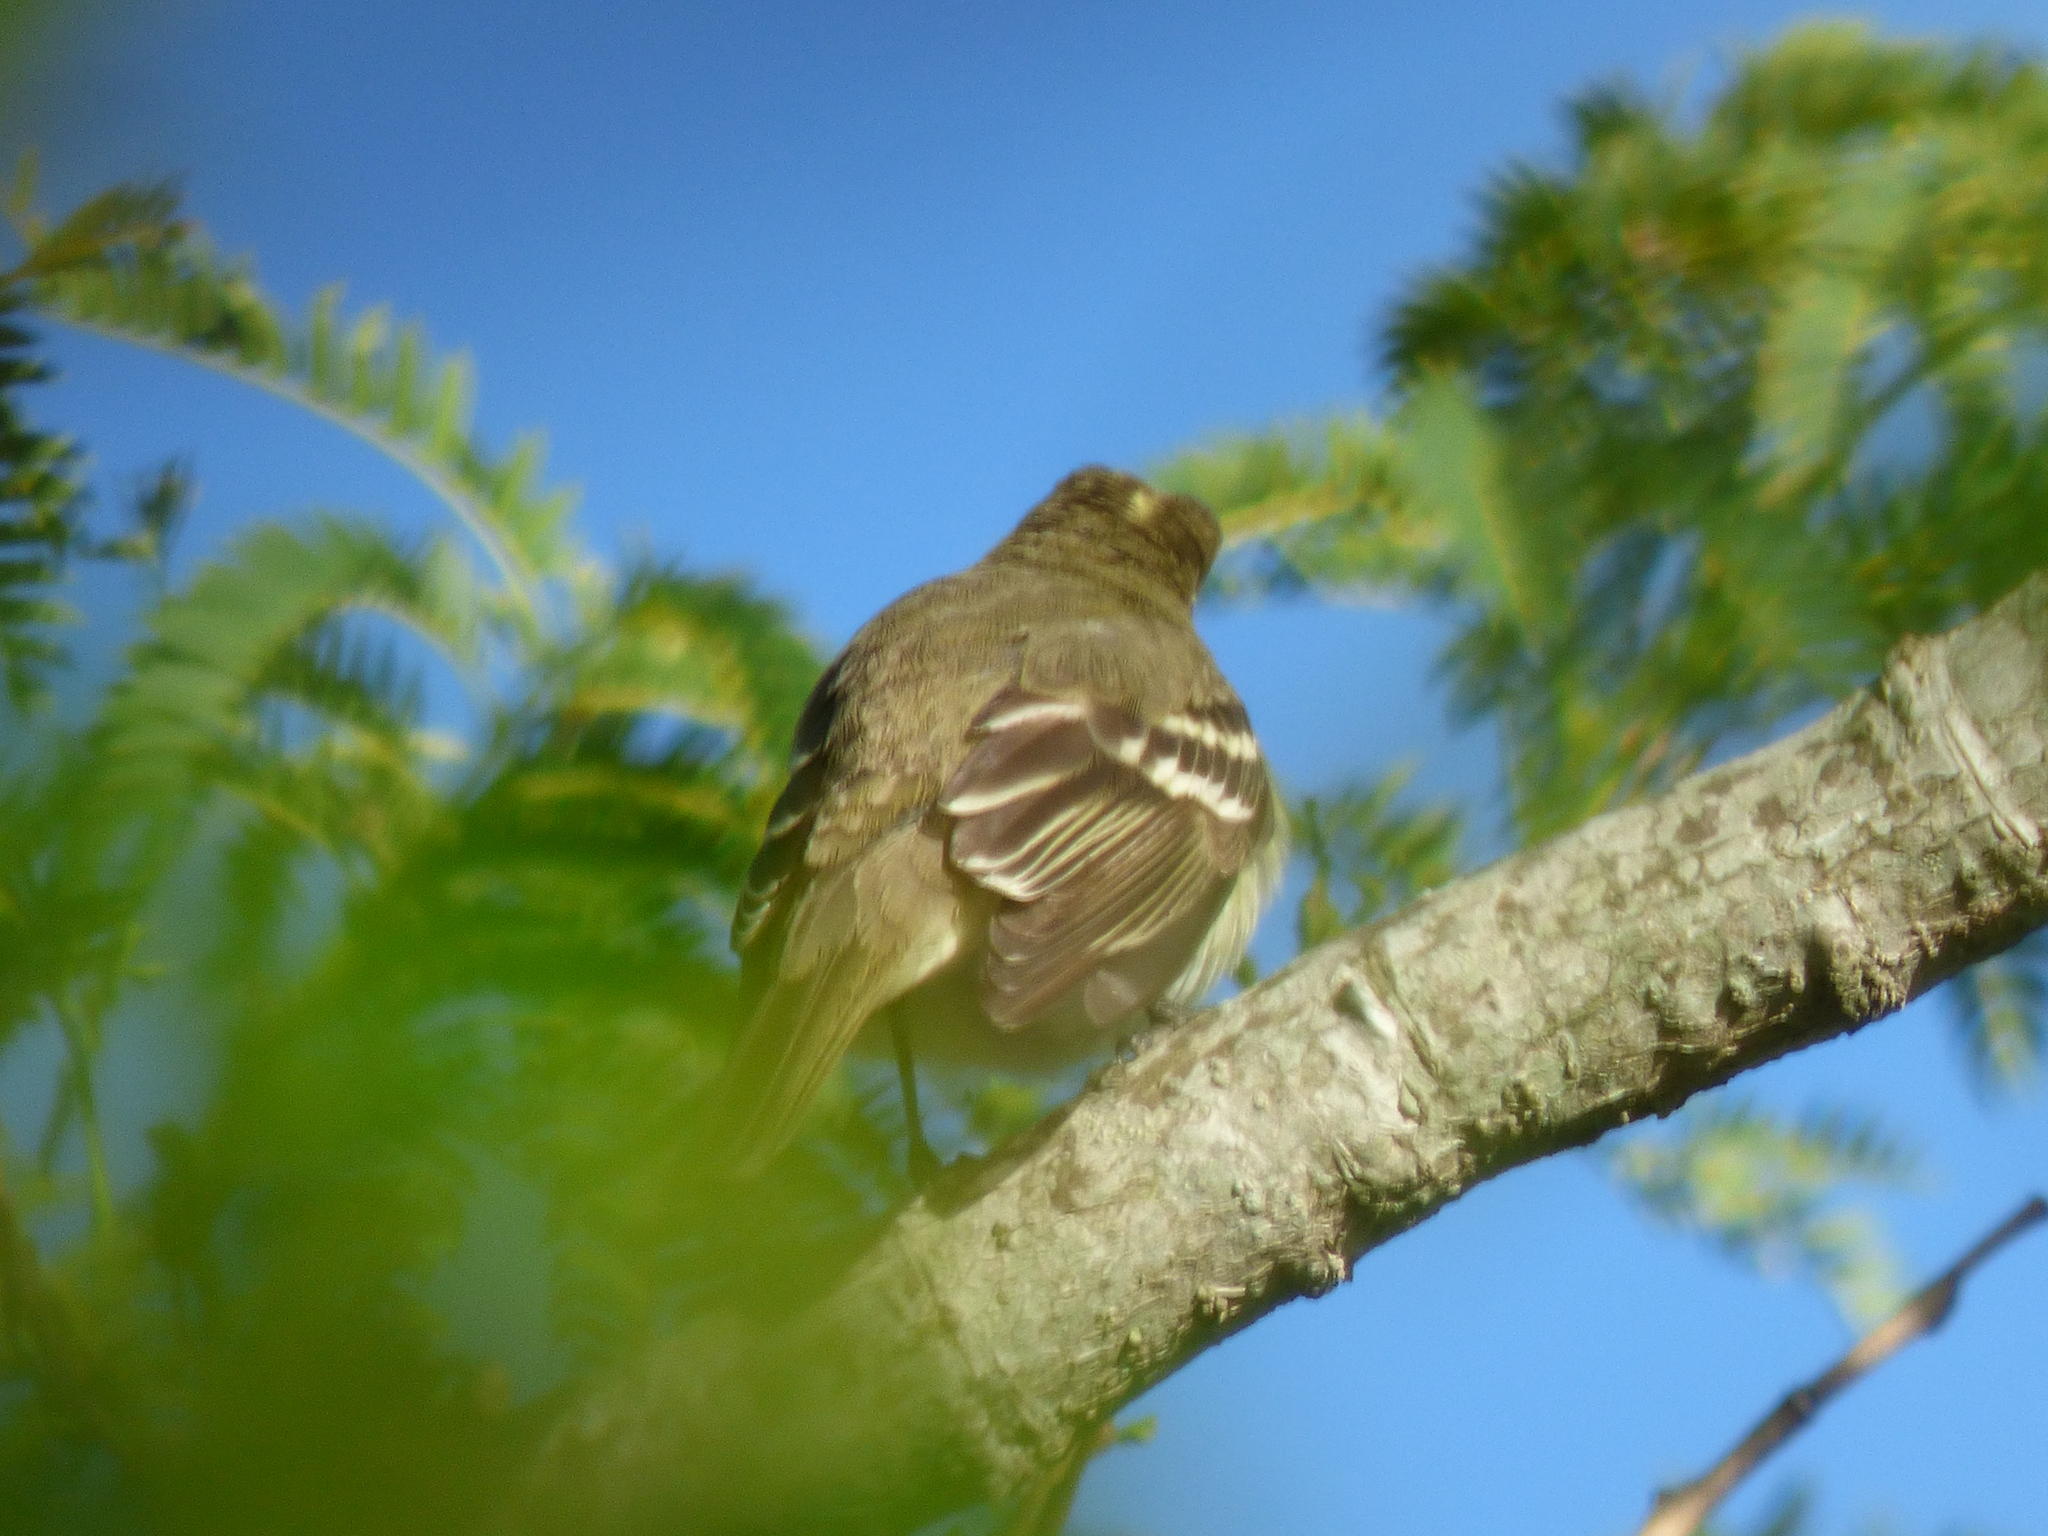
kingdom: Animalia
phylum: Chordata
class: Aves
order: Passeriformes
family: Tyrannidae
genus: Elaenia
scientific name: Elaenia albiceps
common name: White-crested elaenia
